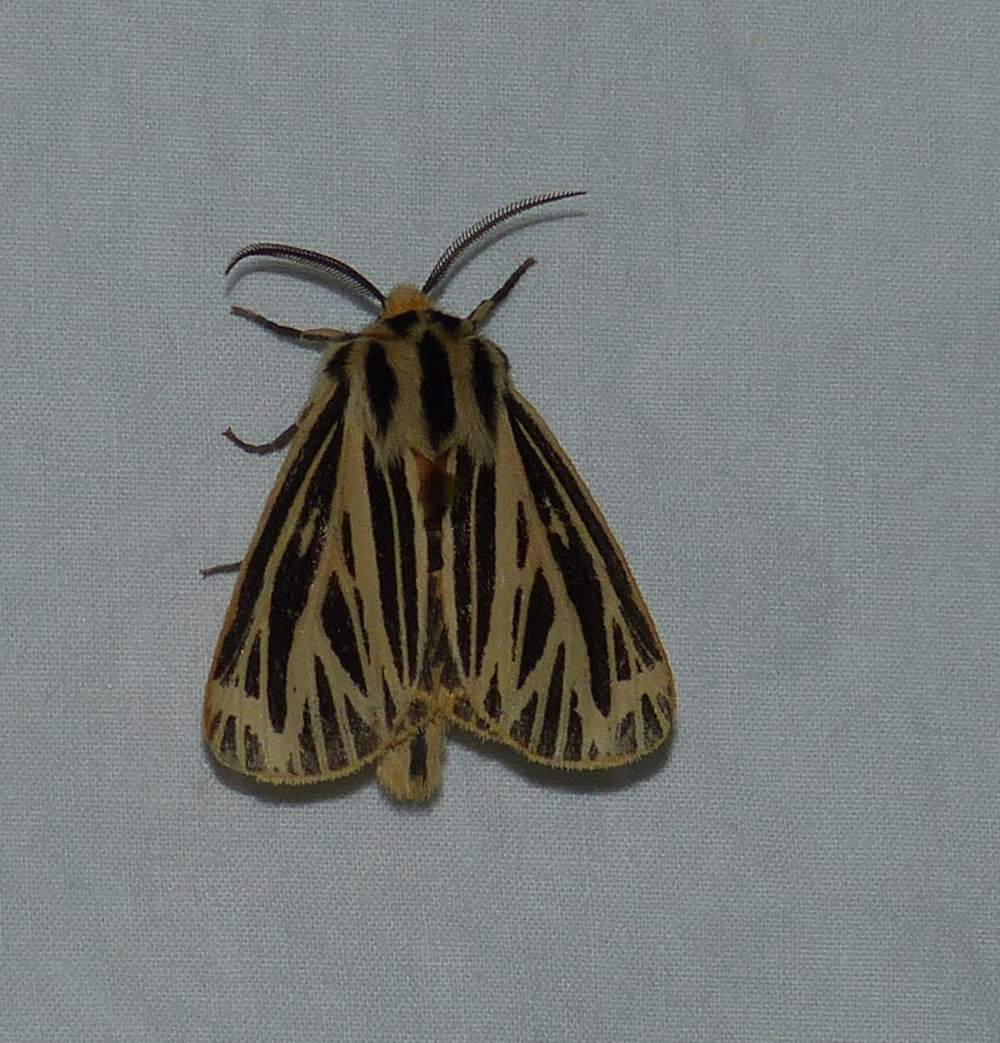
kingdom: Animalia
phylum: Arthropoda
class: Insecta
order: Lepidoptera
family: Erebidae
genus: Grammia
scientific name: Grammia virguncula
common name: Little tiger moth
